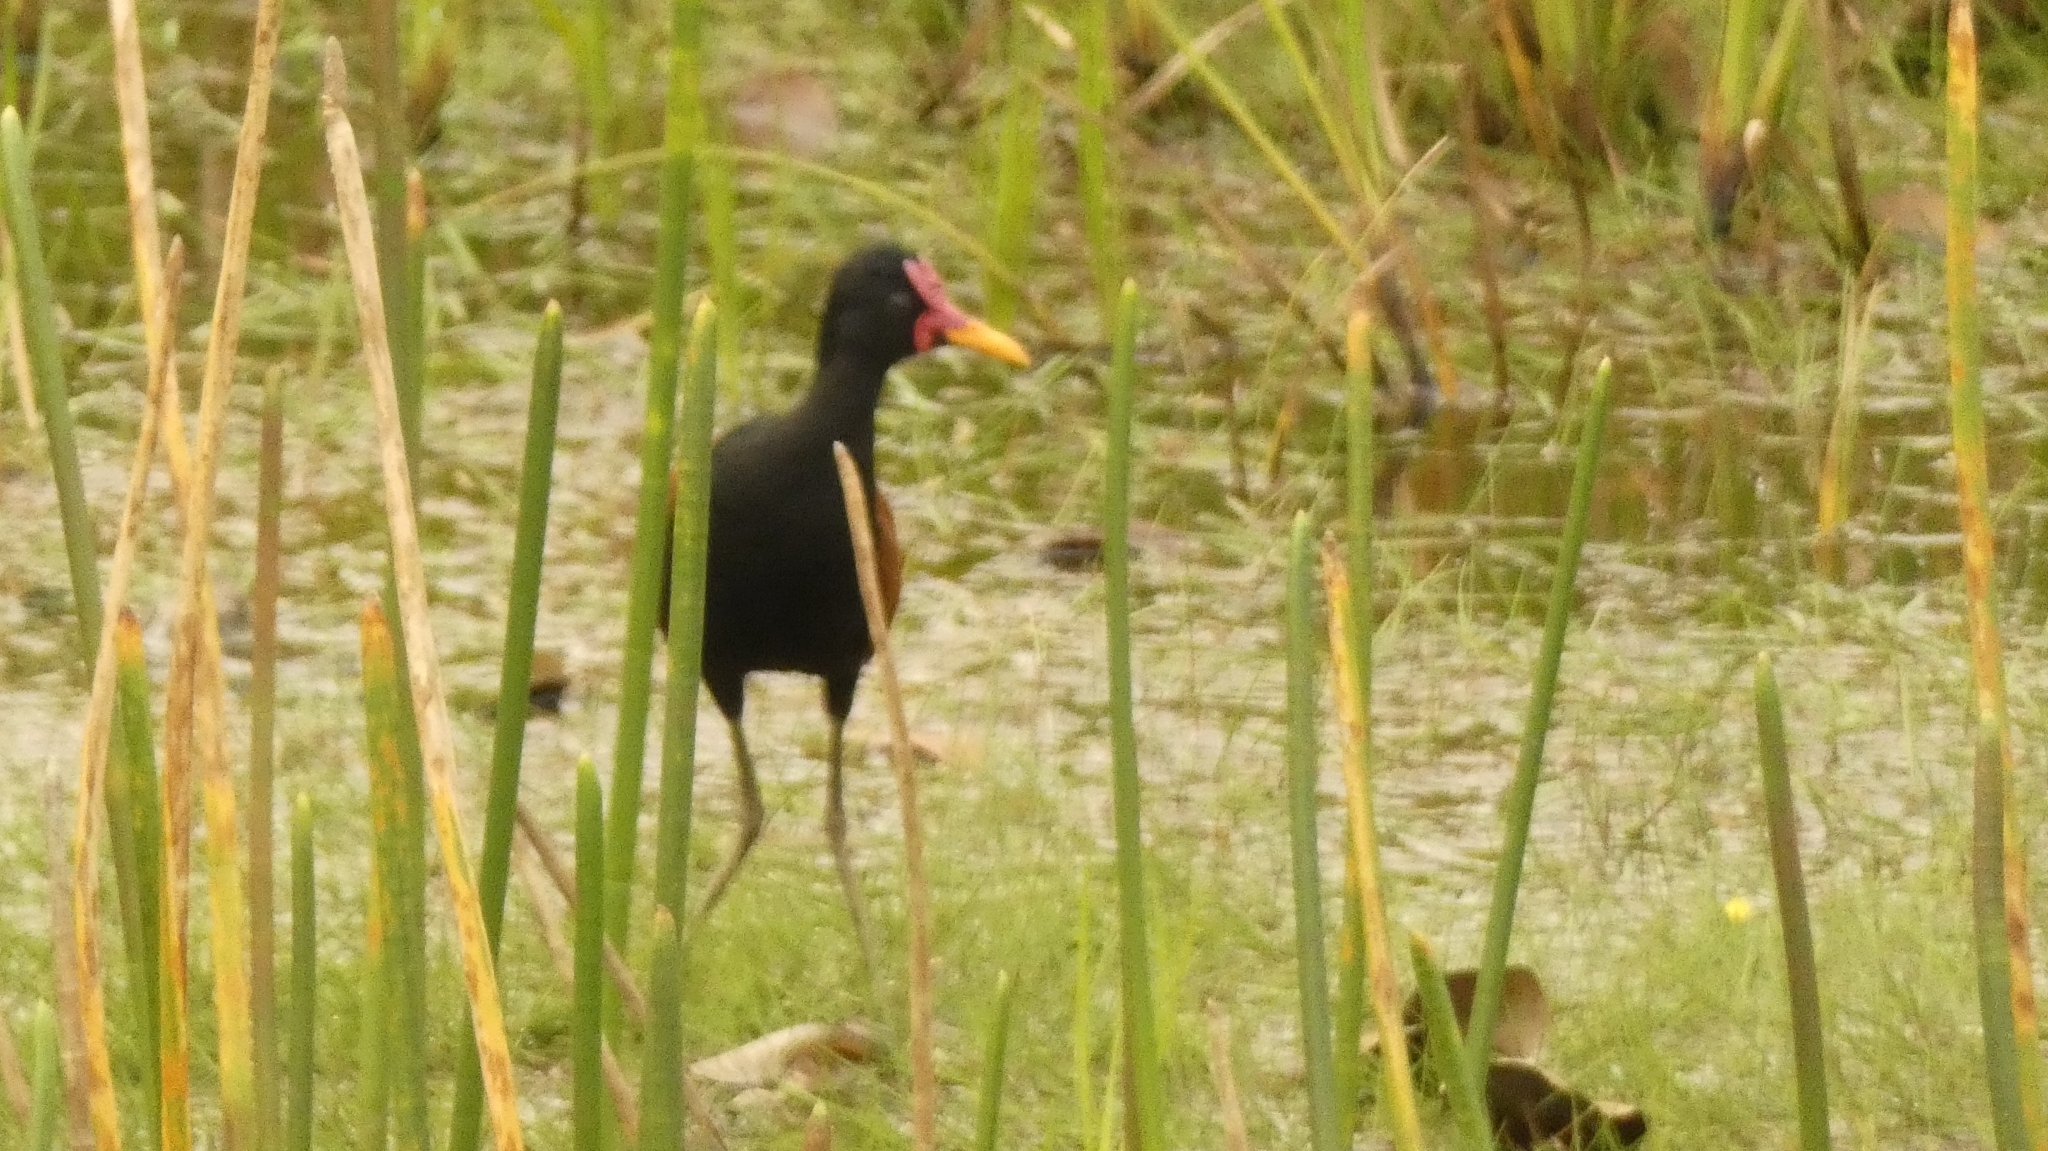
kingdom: Animalia
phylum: Chordata
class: Aves
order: Charadriiformes
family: Jacanidae
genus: Jacana
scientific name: Jacana jacana
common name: Wattled jacana
